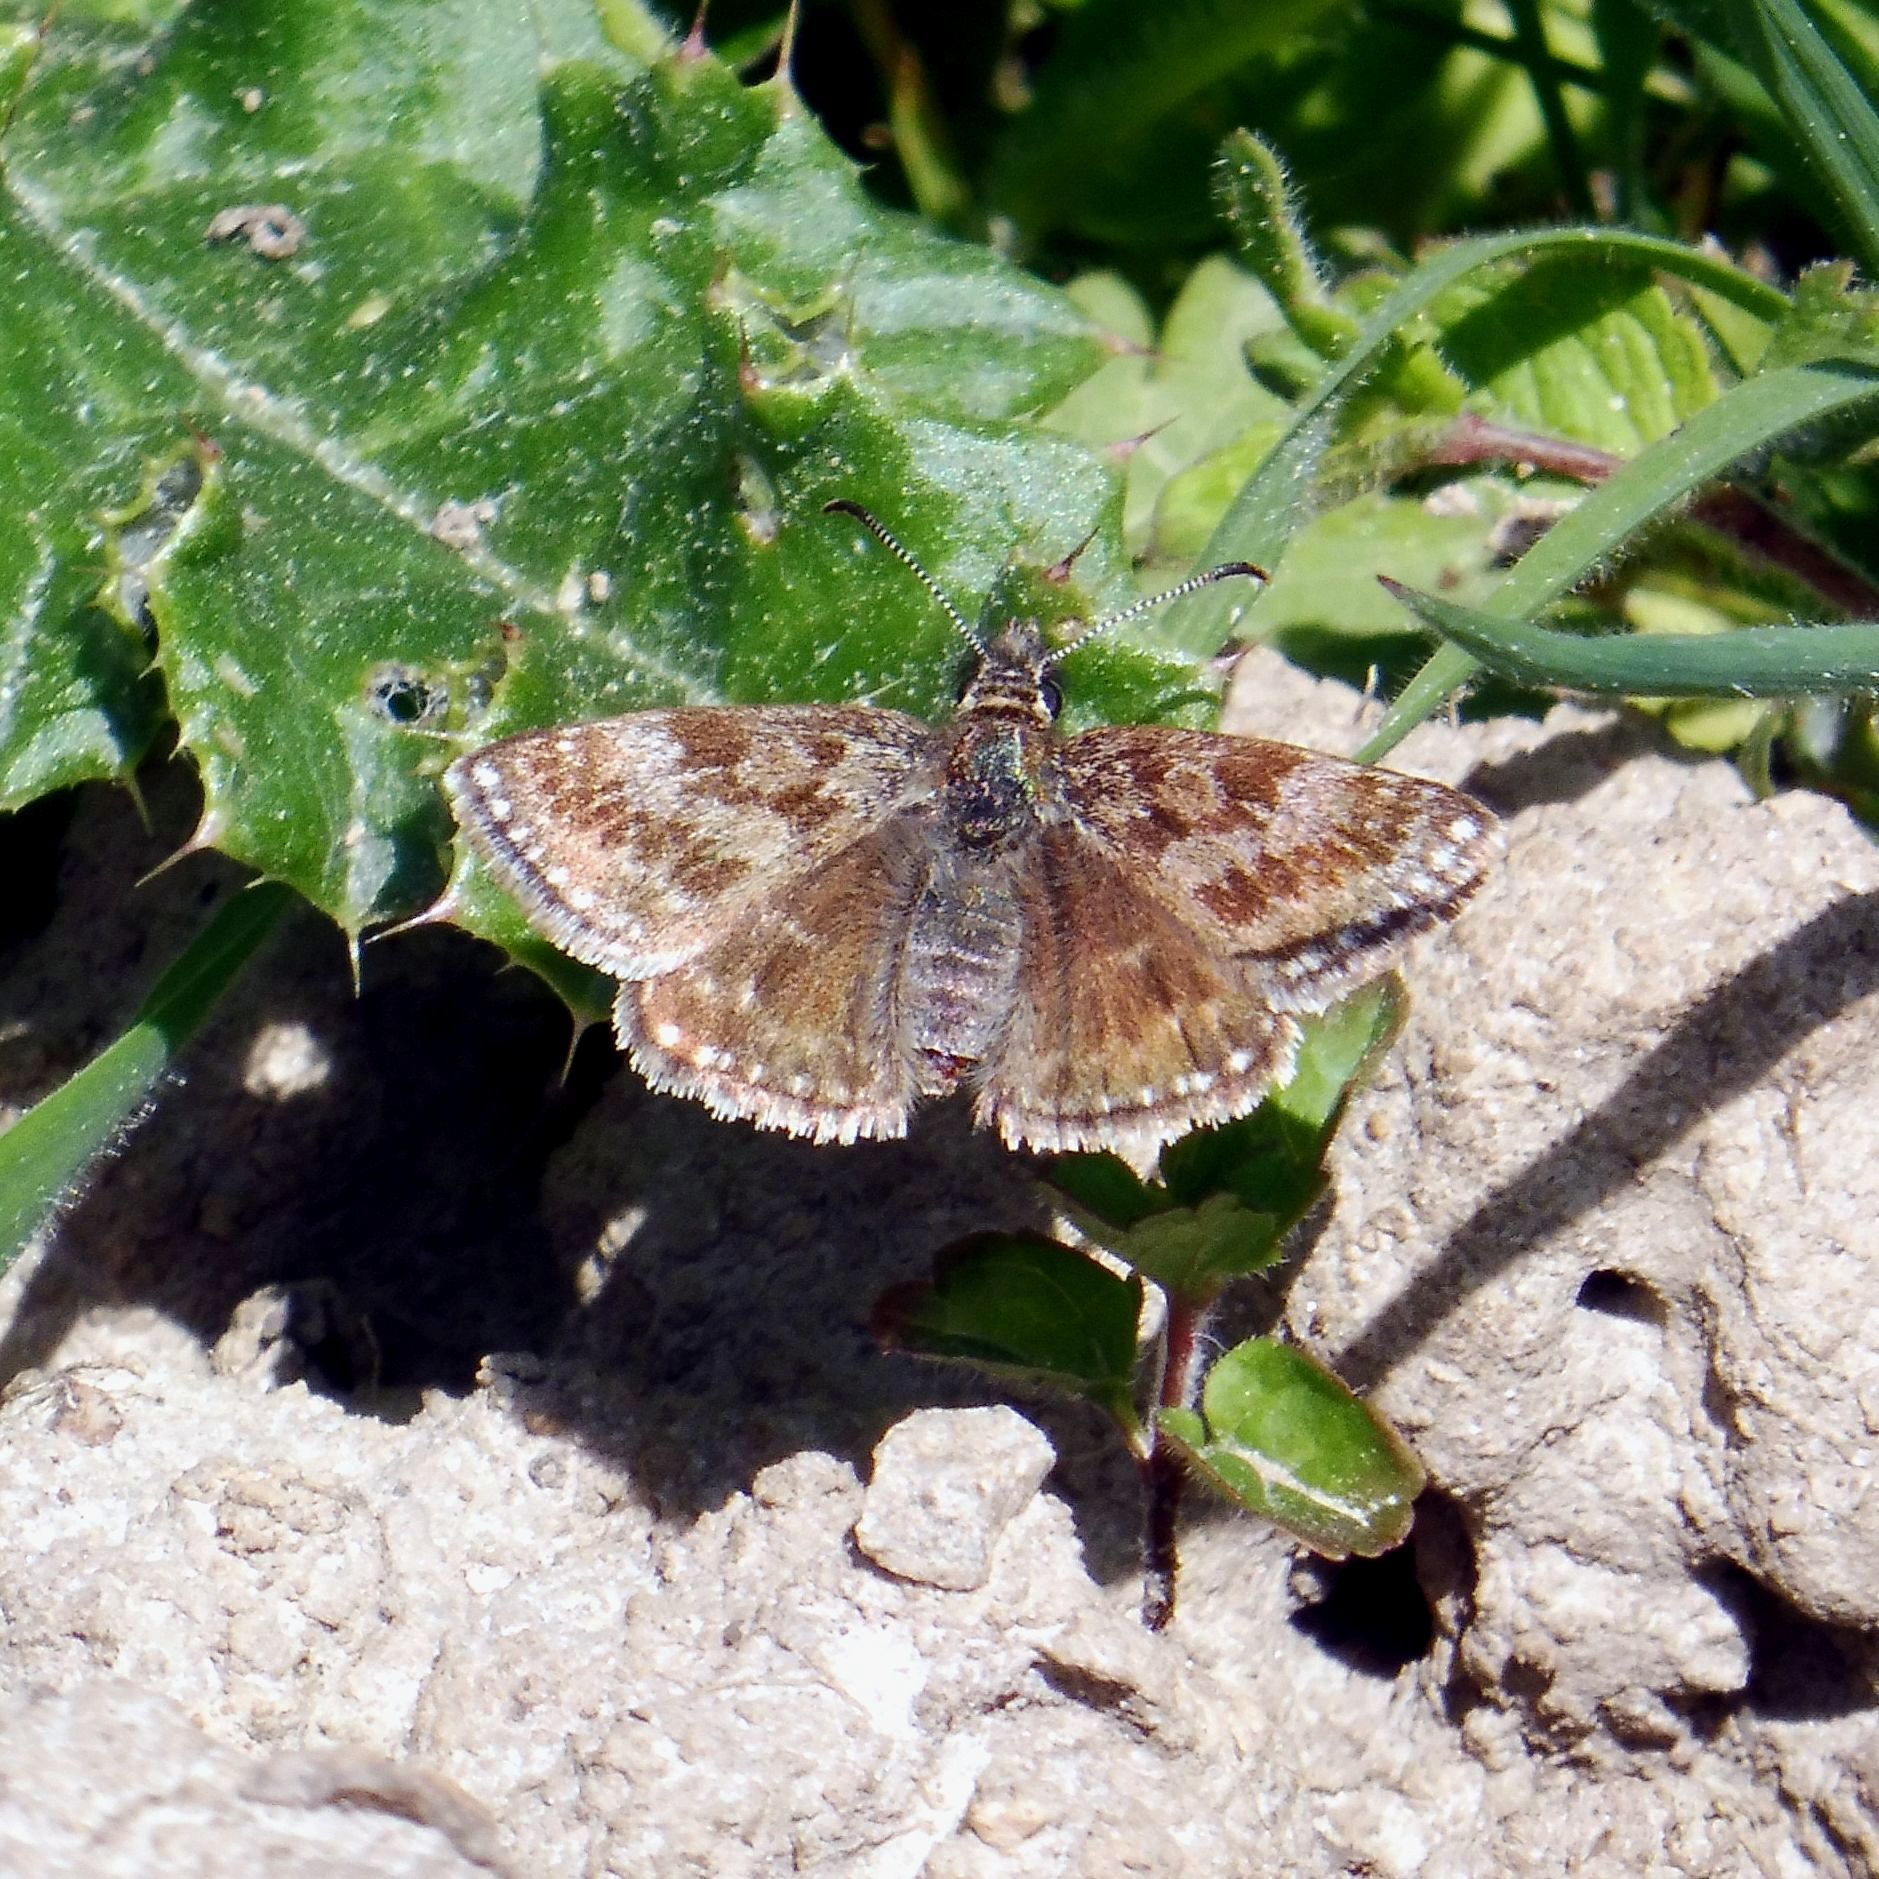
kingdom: Animalia
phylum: Arthropoda
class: Insecta
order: Lepidoptera
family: Hesperiidae
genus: Erynnis
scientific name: Erynnis tages
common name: Dingy skipper
